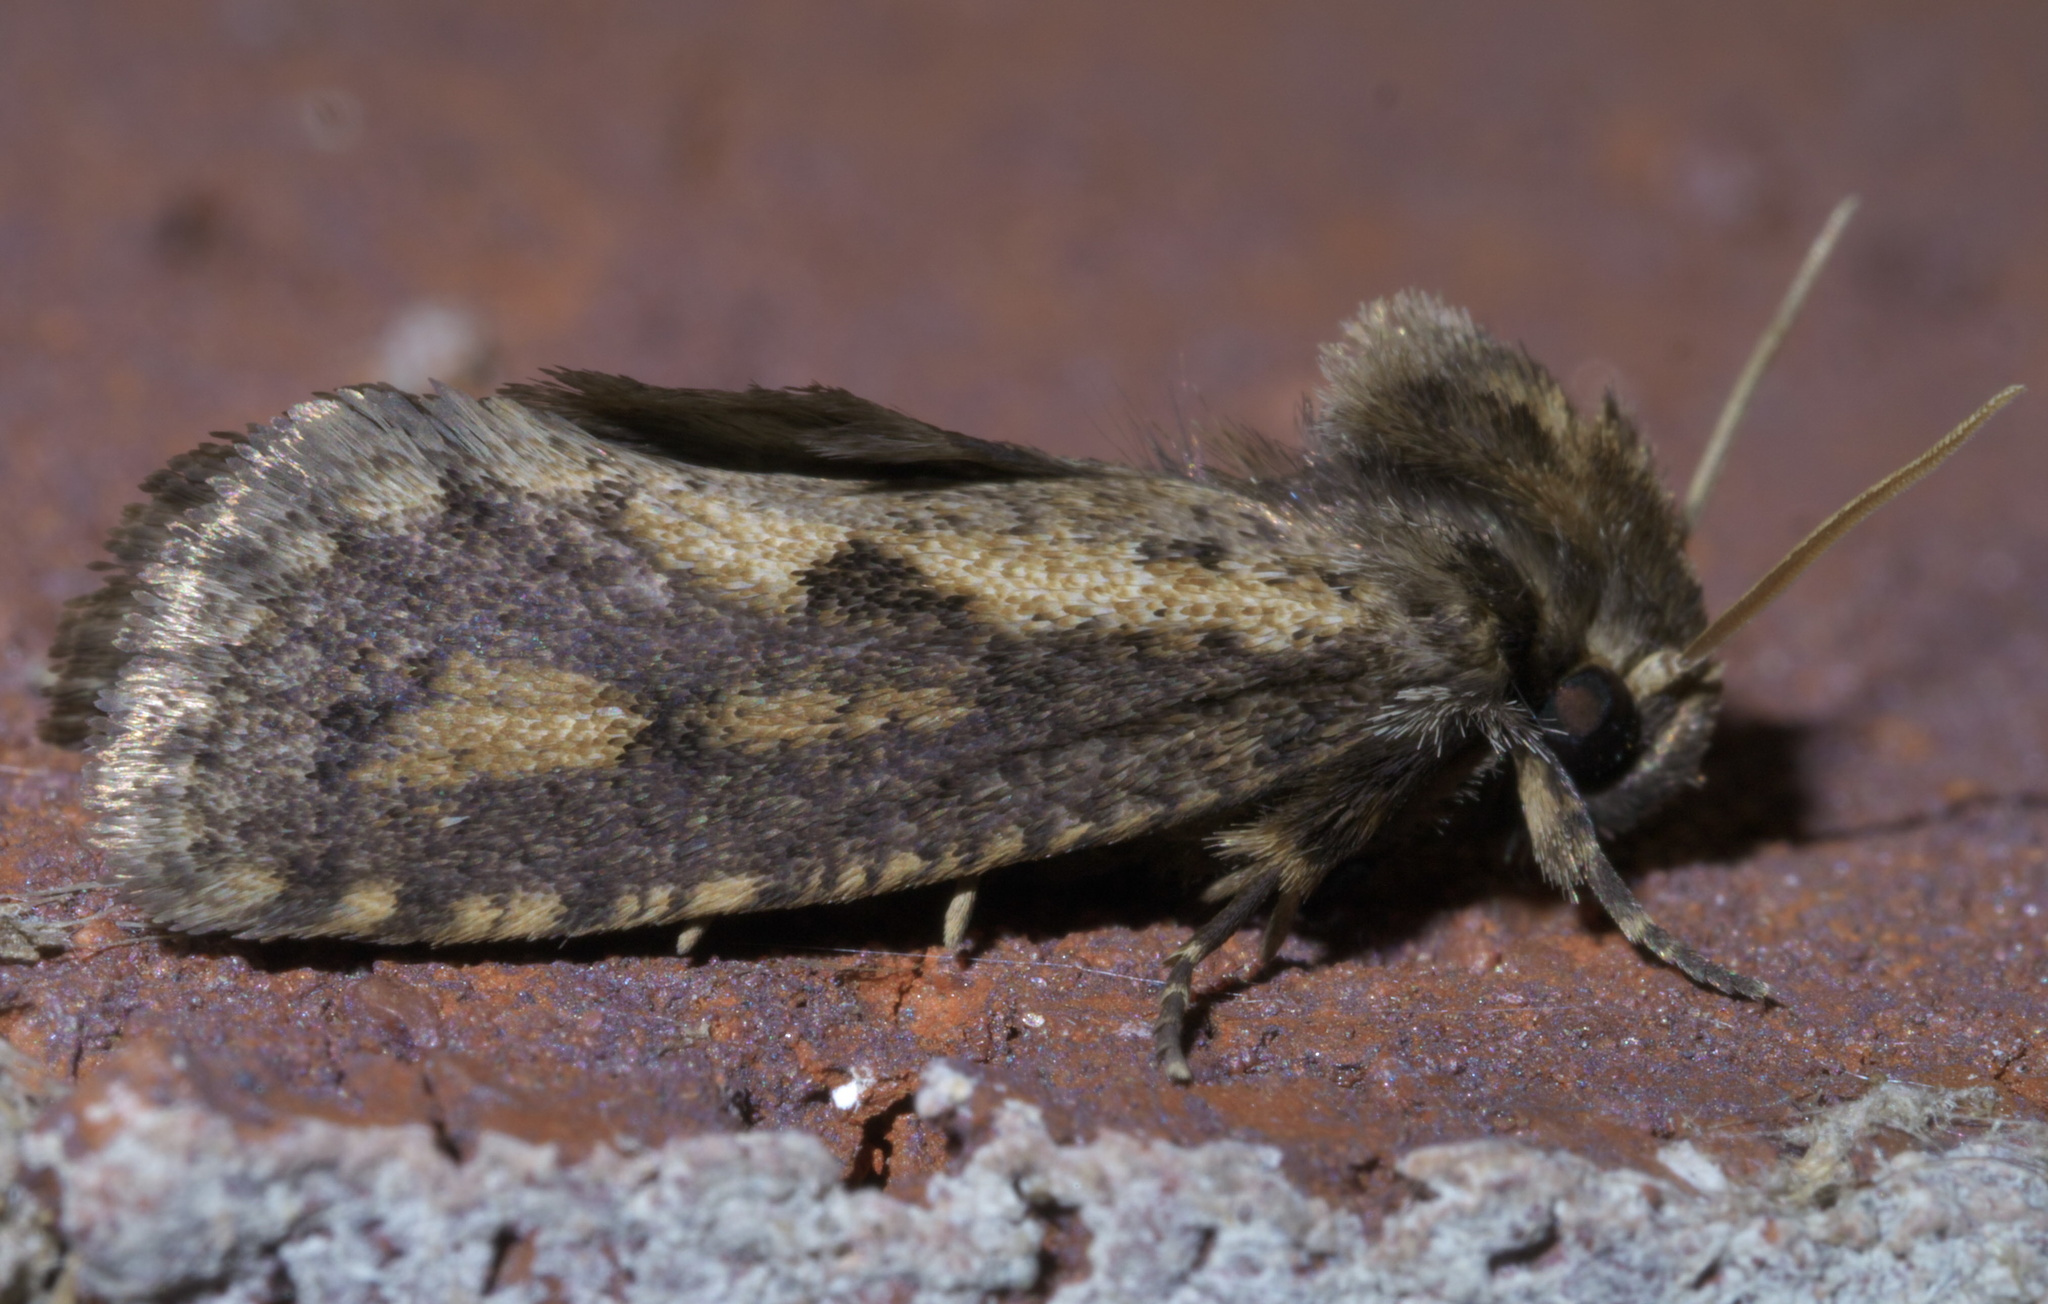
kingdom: Animalia
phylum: Arthropoda
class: Insecta
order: Lepidoptera
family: Tineidae
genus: Acrolophus
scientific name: Acrolophus popeanella
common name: Clemens' grass tubeworm moth
